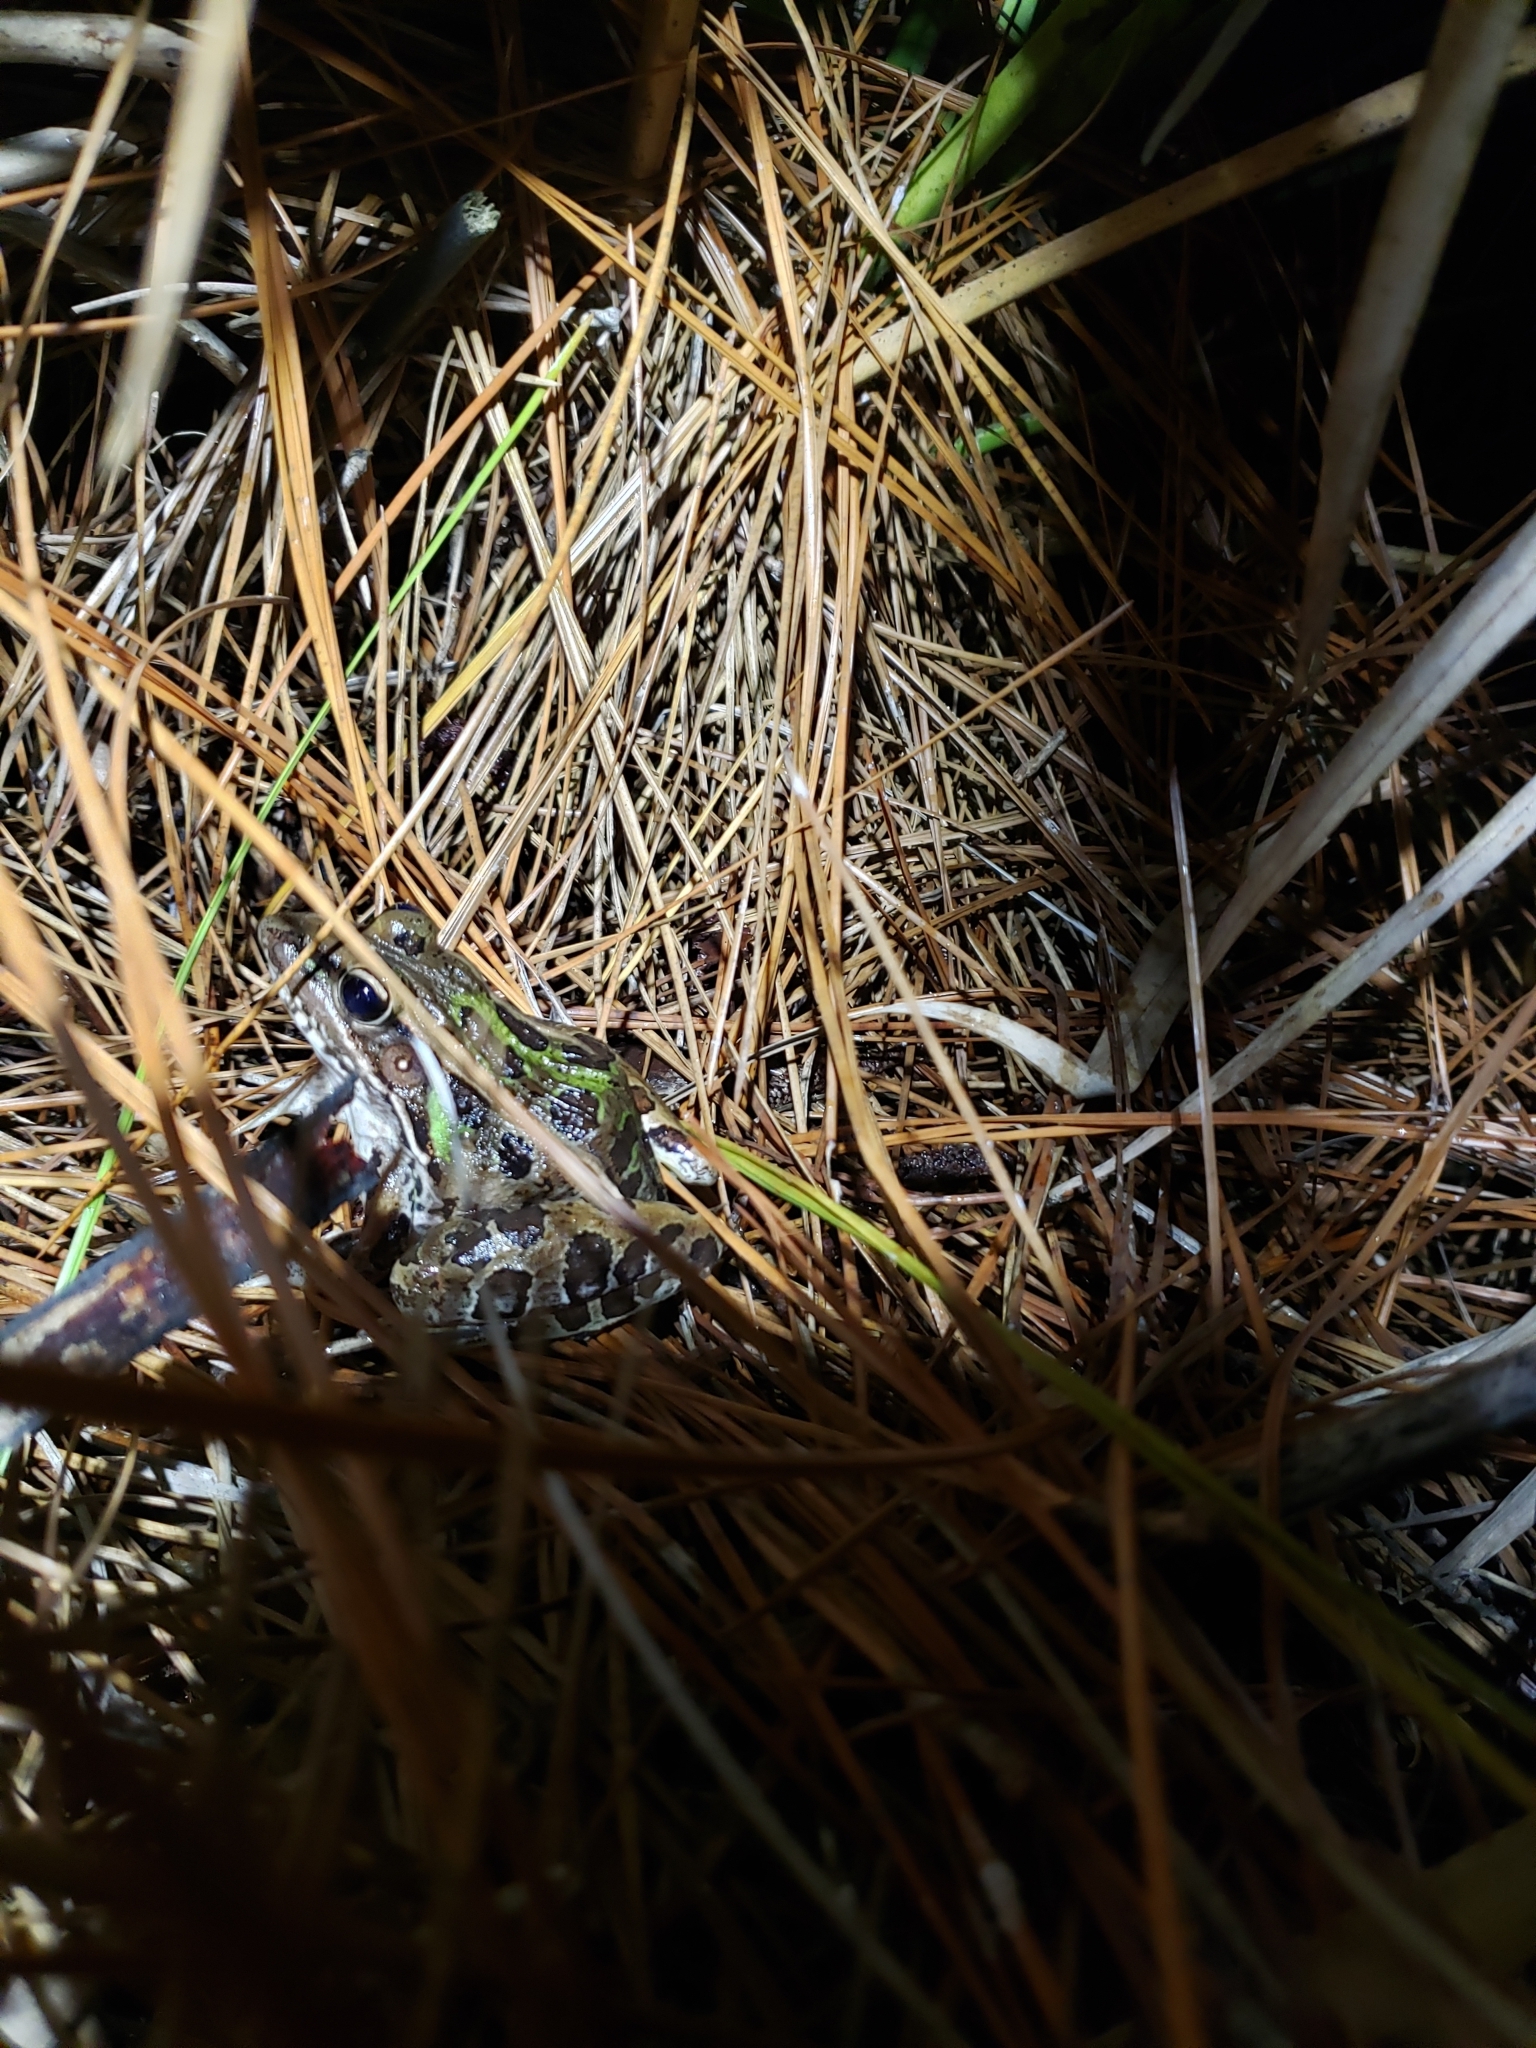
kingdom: Animalia
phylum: Chordata
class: Amphibia
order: Anura
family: Ranidae
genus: Lithobates
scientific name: Lithobates sphenocephalus
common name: Southern leopard frog
